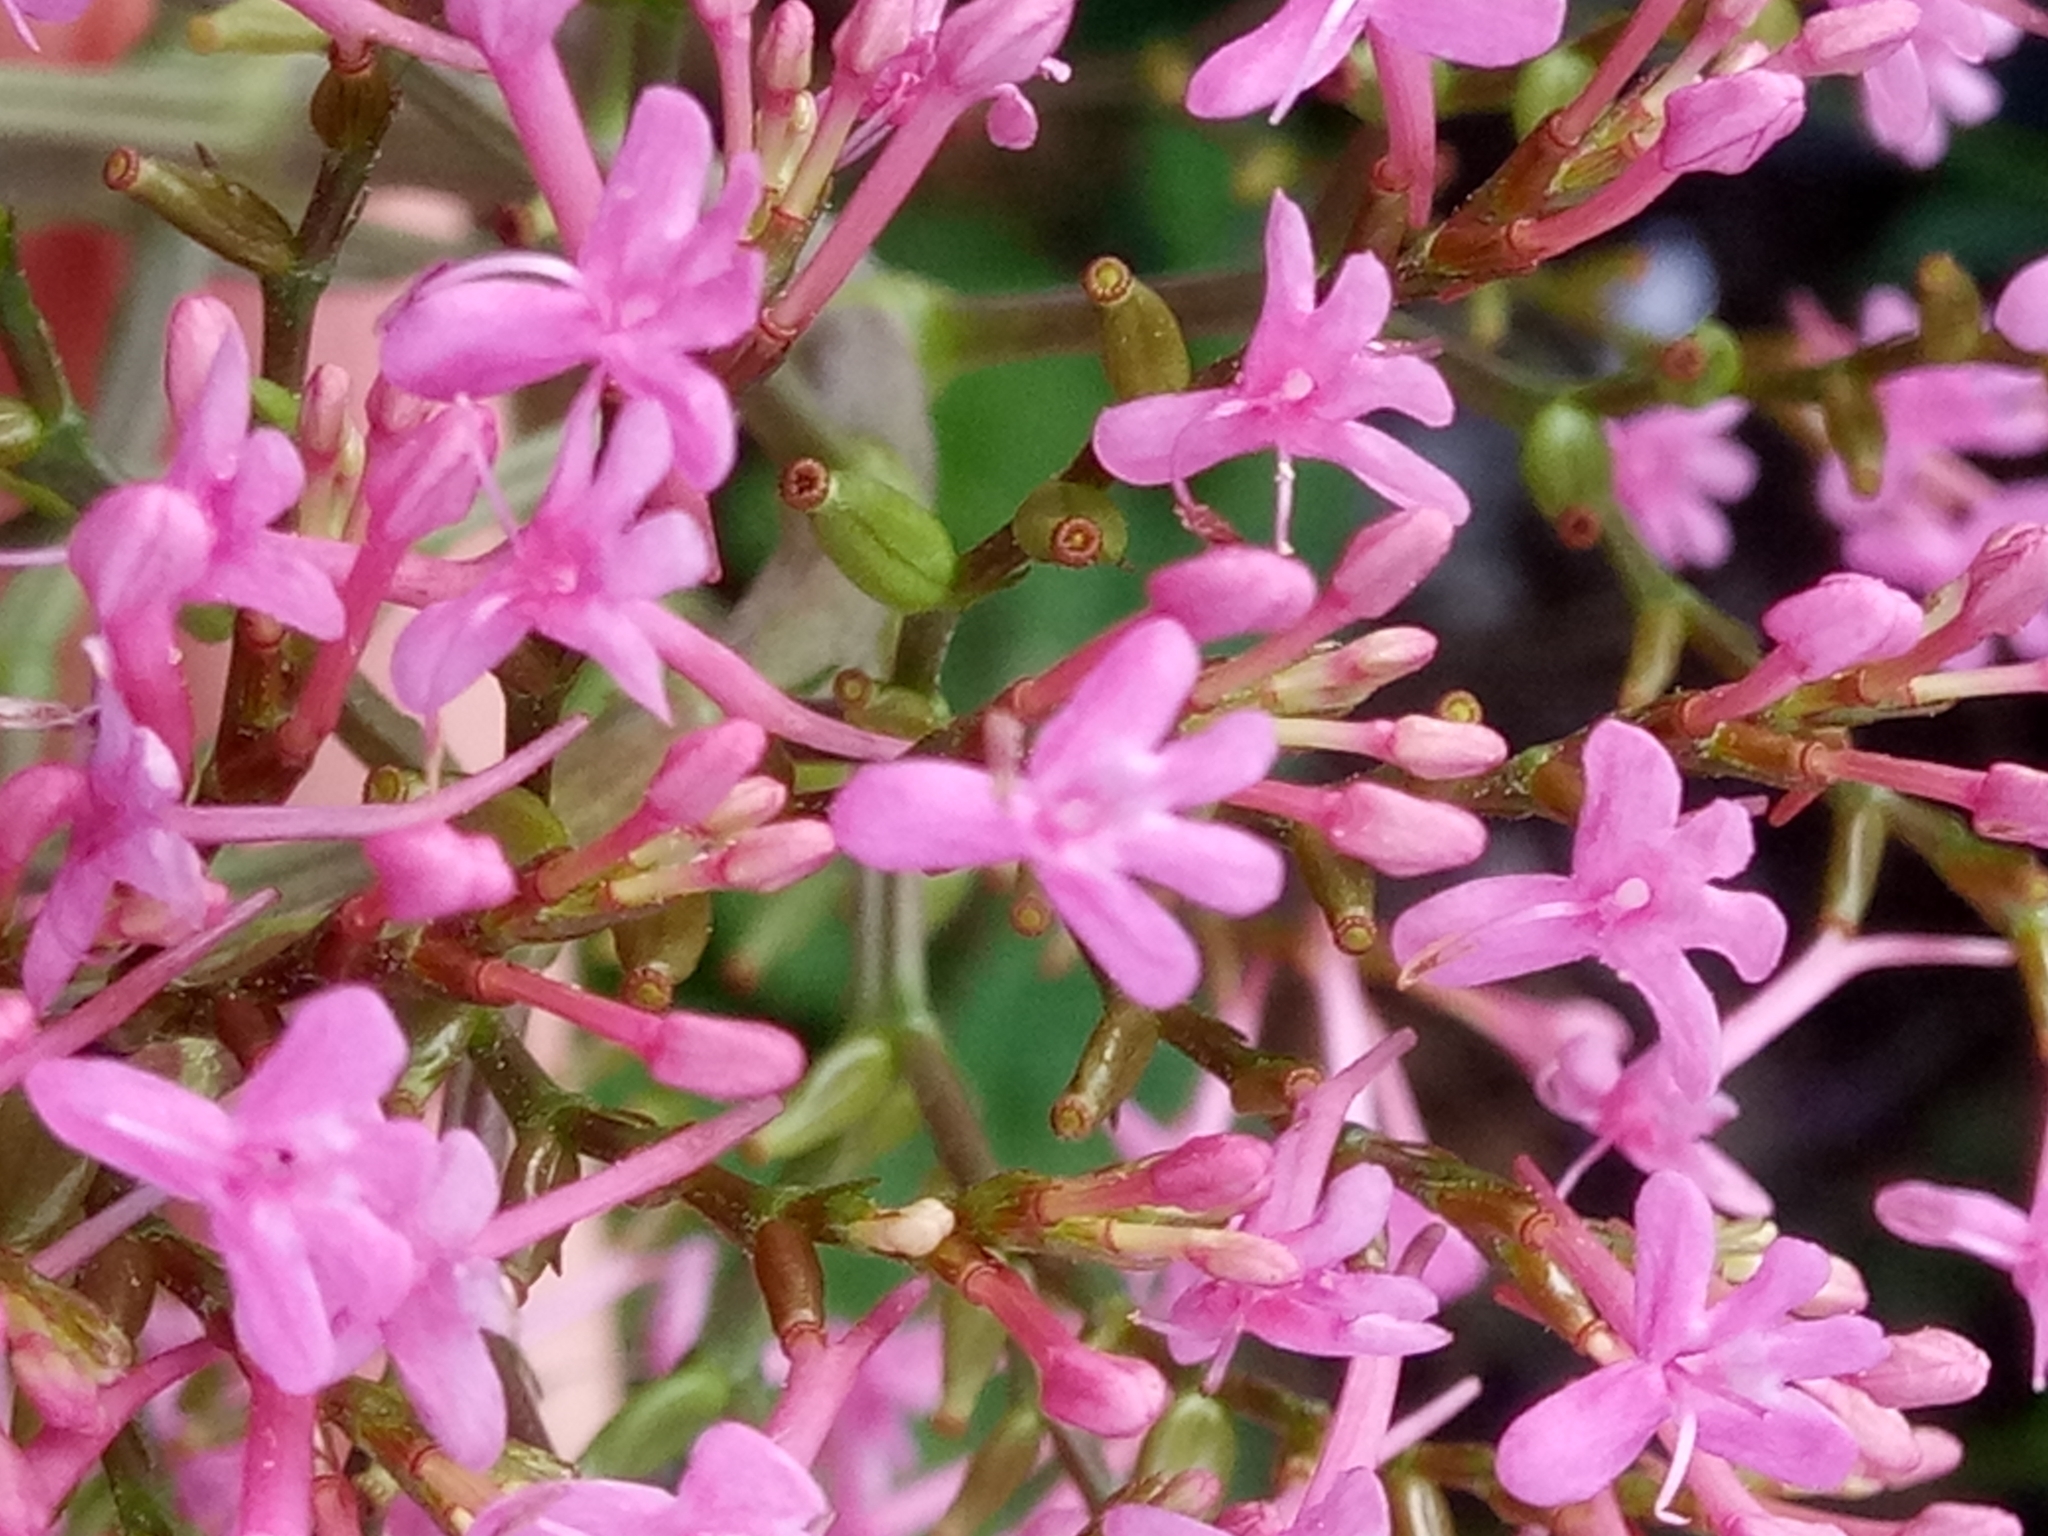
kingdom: Plantae
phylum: Tracheophyta
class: Magnoliopsida
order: Dipsacales
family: Caprifoliaceae
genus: Centranthus
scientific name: Centranthus ruber
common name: Red valerian
